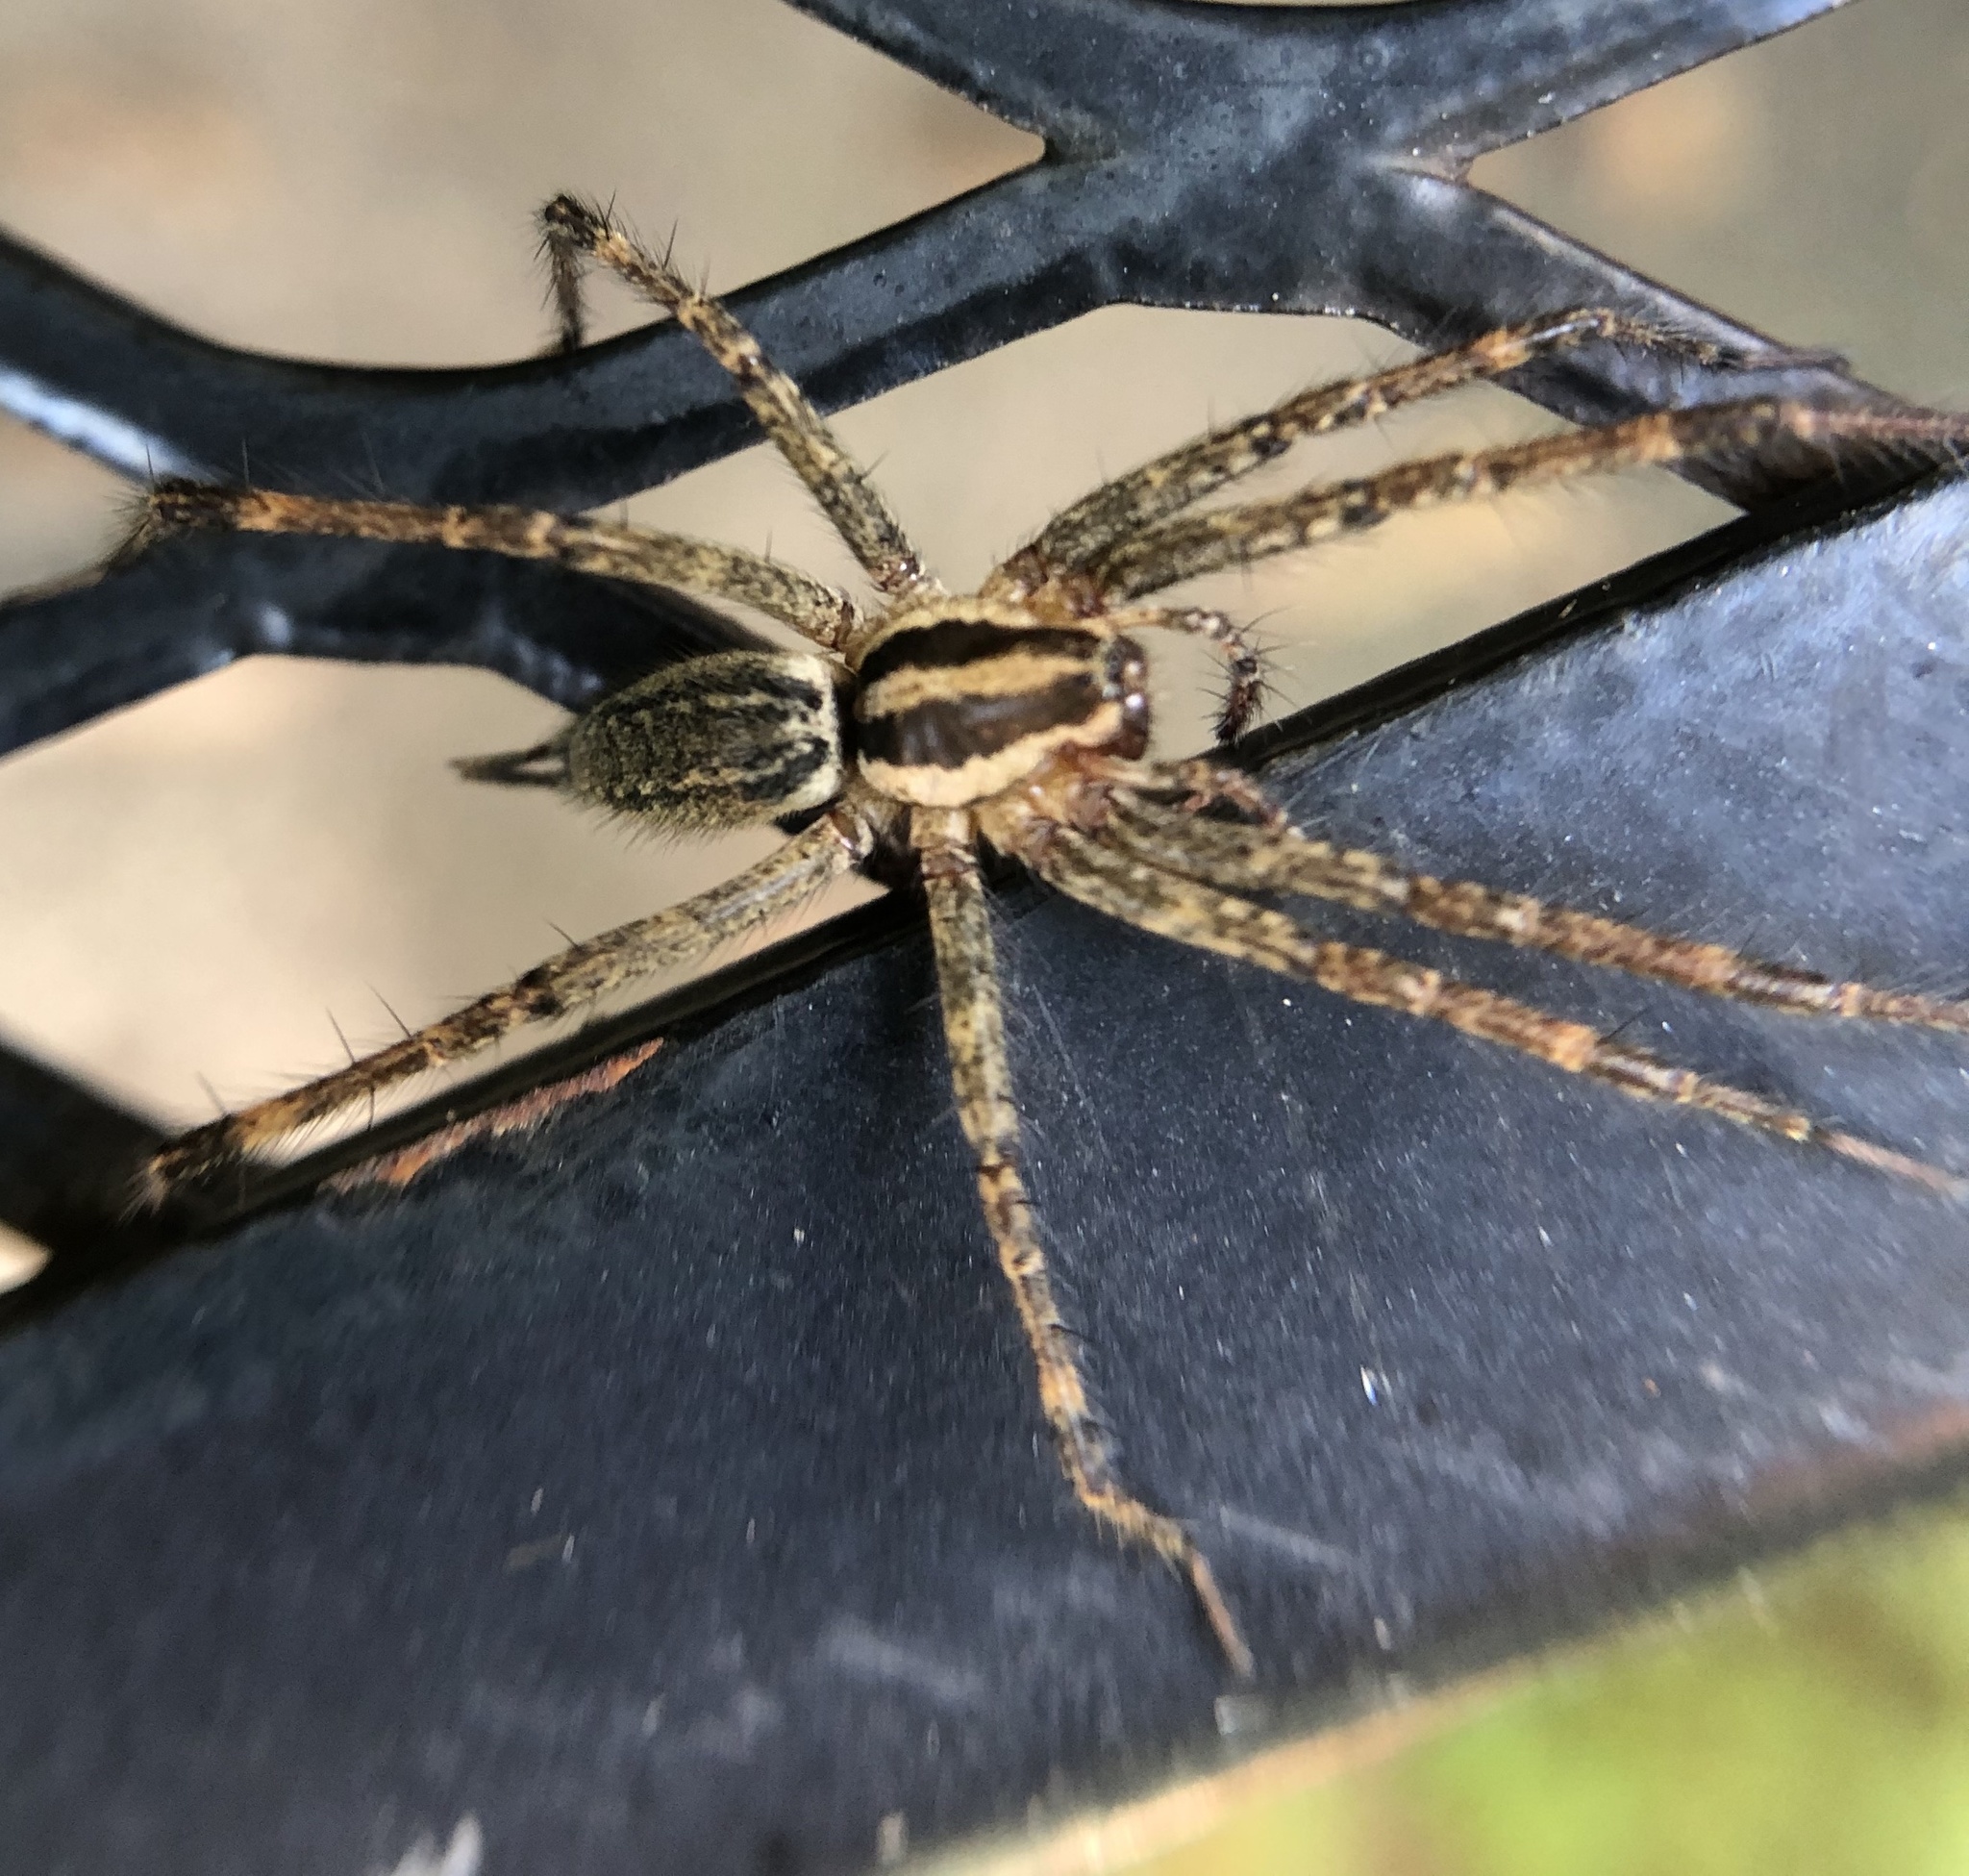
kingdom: Animalia
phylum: Arthropoda
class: Arachnida
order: Araneae
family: Agelenidae
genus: Agelenopsis
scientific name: Agelenopsis
